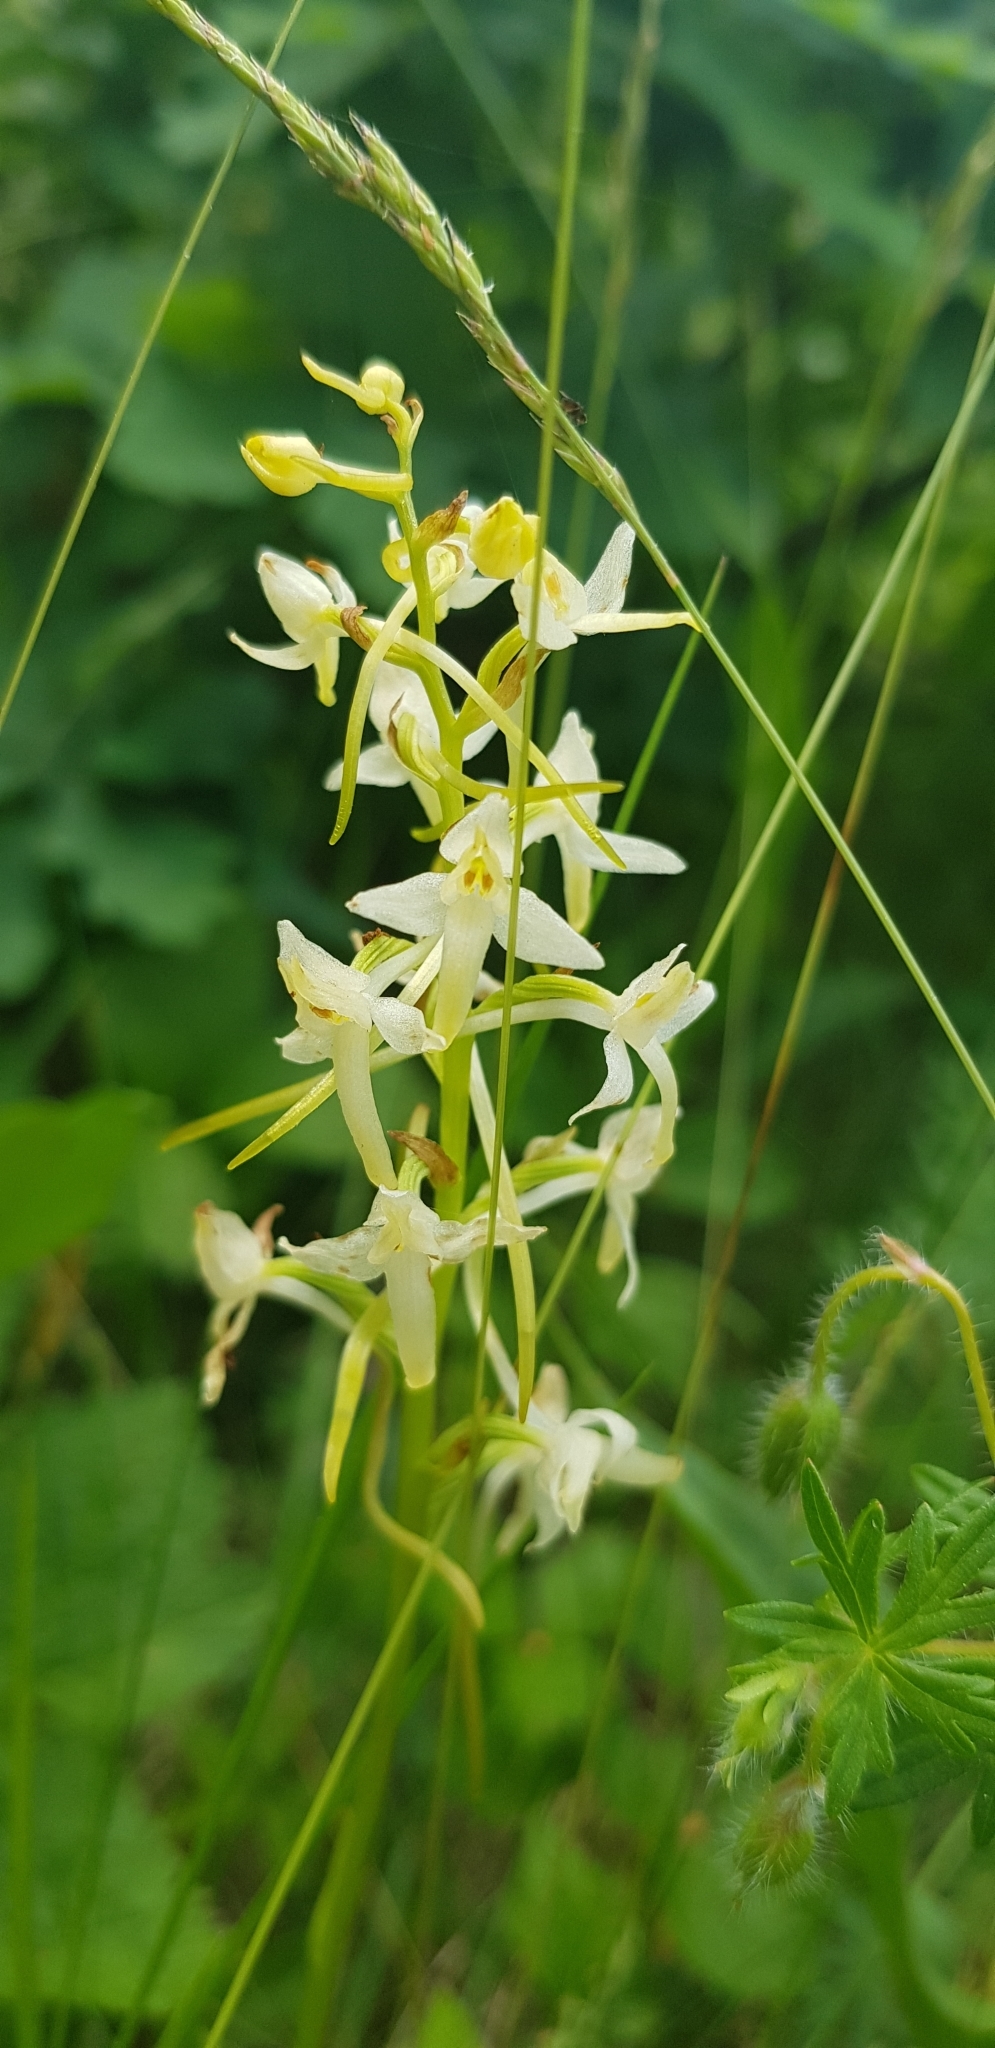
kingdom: Plantae
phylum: Tracheophyta
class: Liliopsida
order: Asparagales
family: Orchidaceae
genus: Platanthera
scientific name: Platanthera bifolia
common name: Lesser butterfly-orchid
